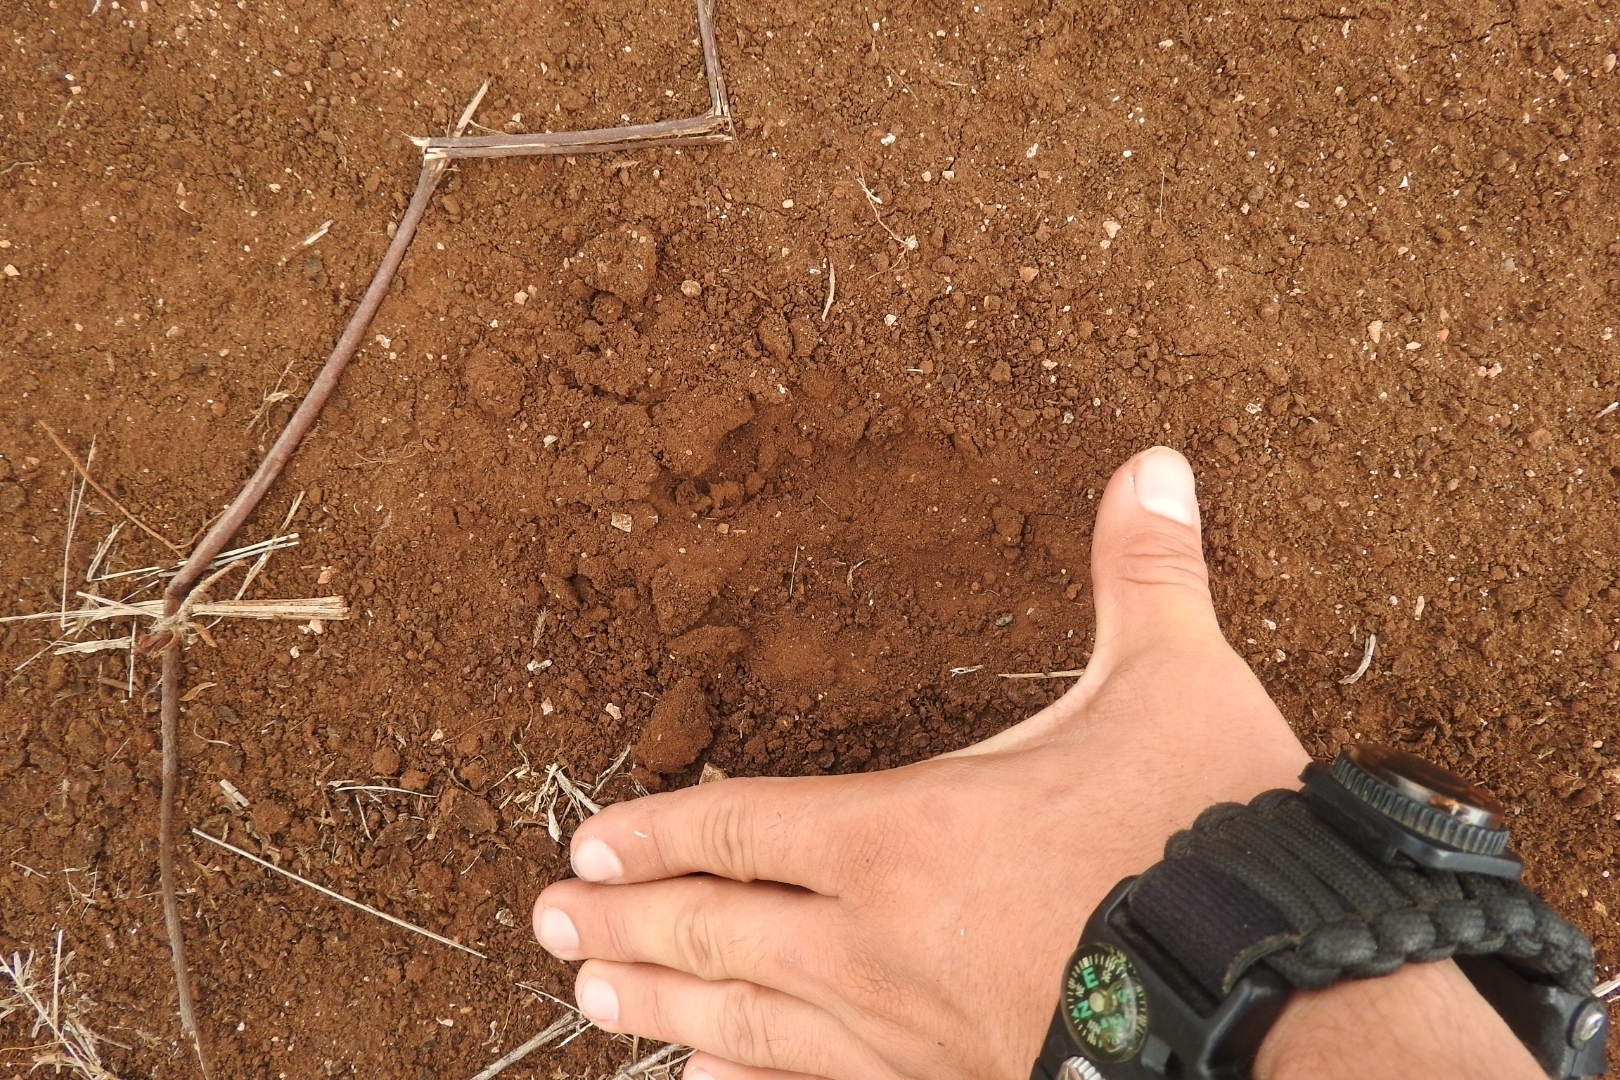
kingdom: Animalia
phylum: Chordata
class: Mammalia
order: Artiodactyla
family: Cervidae
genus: Odocoileus
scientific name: Odocoileus virginianus
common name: White-tailed deer
